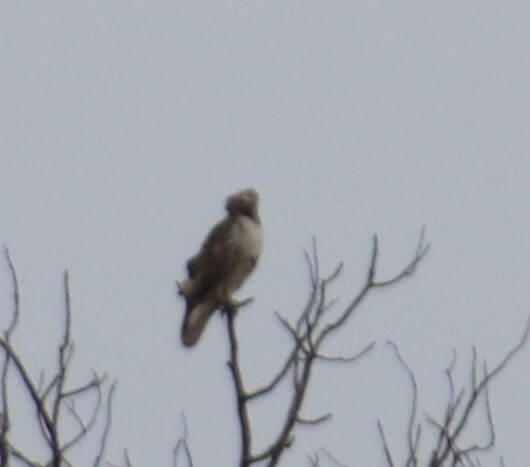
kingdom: Animalia
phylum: Chordata
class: Aves
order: Accipitriformes
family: Accipitridae
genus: Buteo
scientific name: Buteo jamaicensis
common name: Red-tailed hawk
